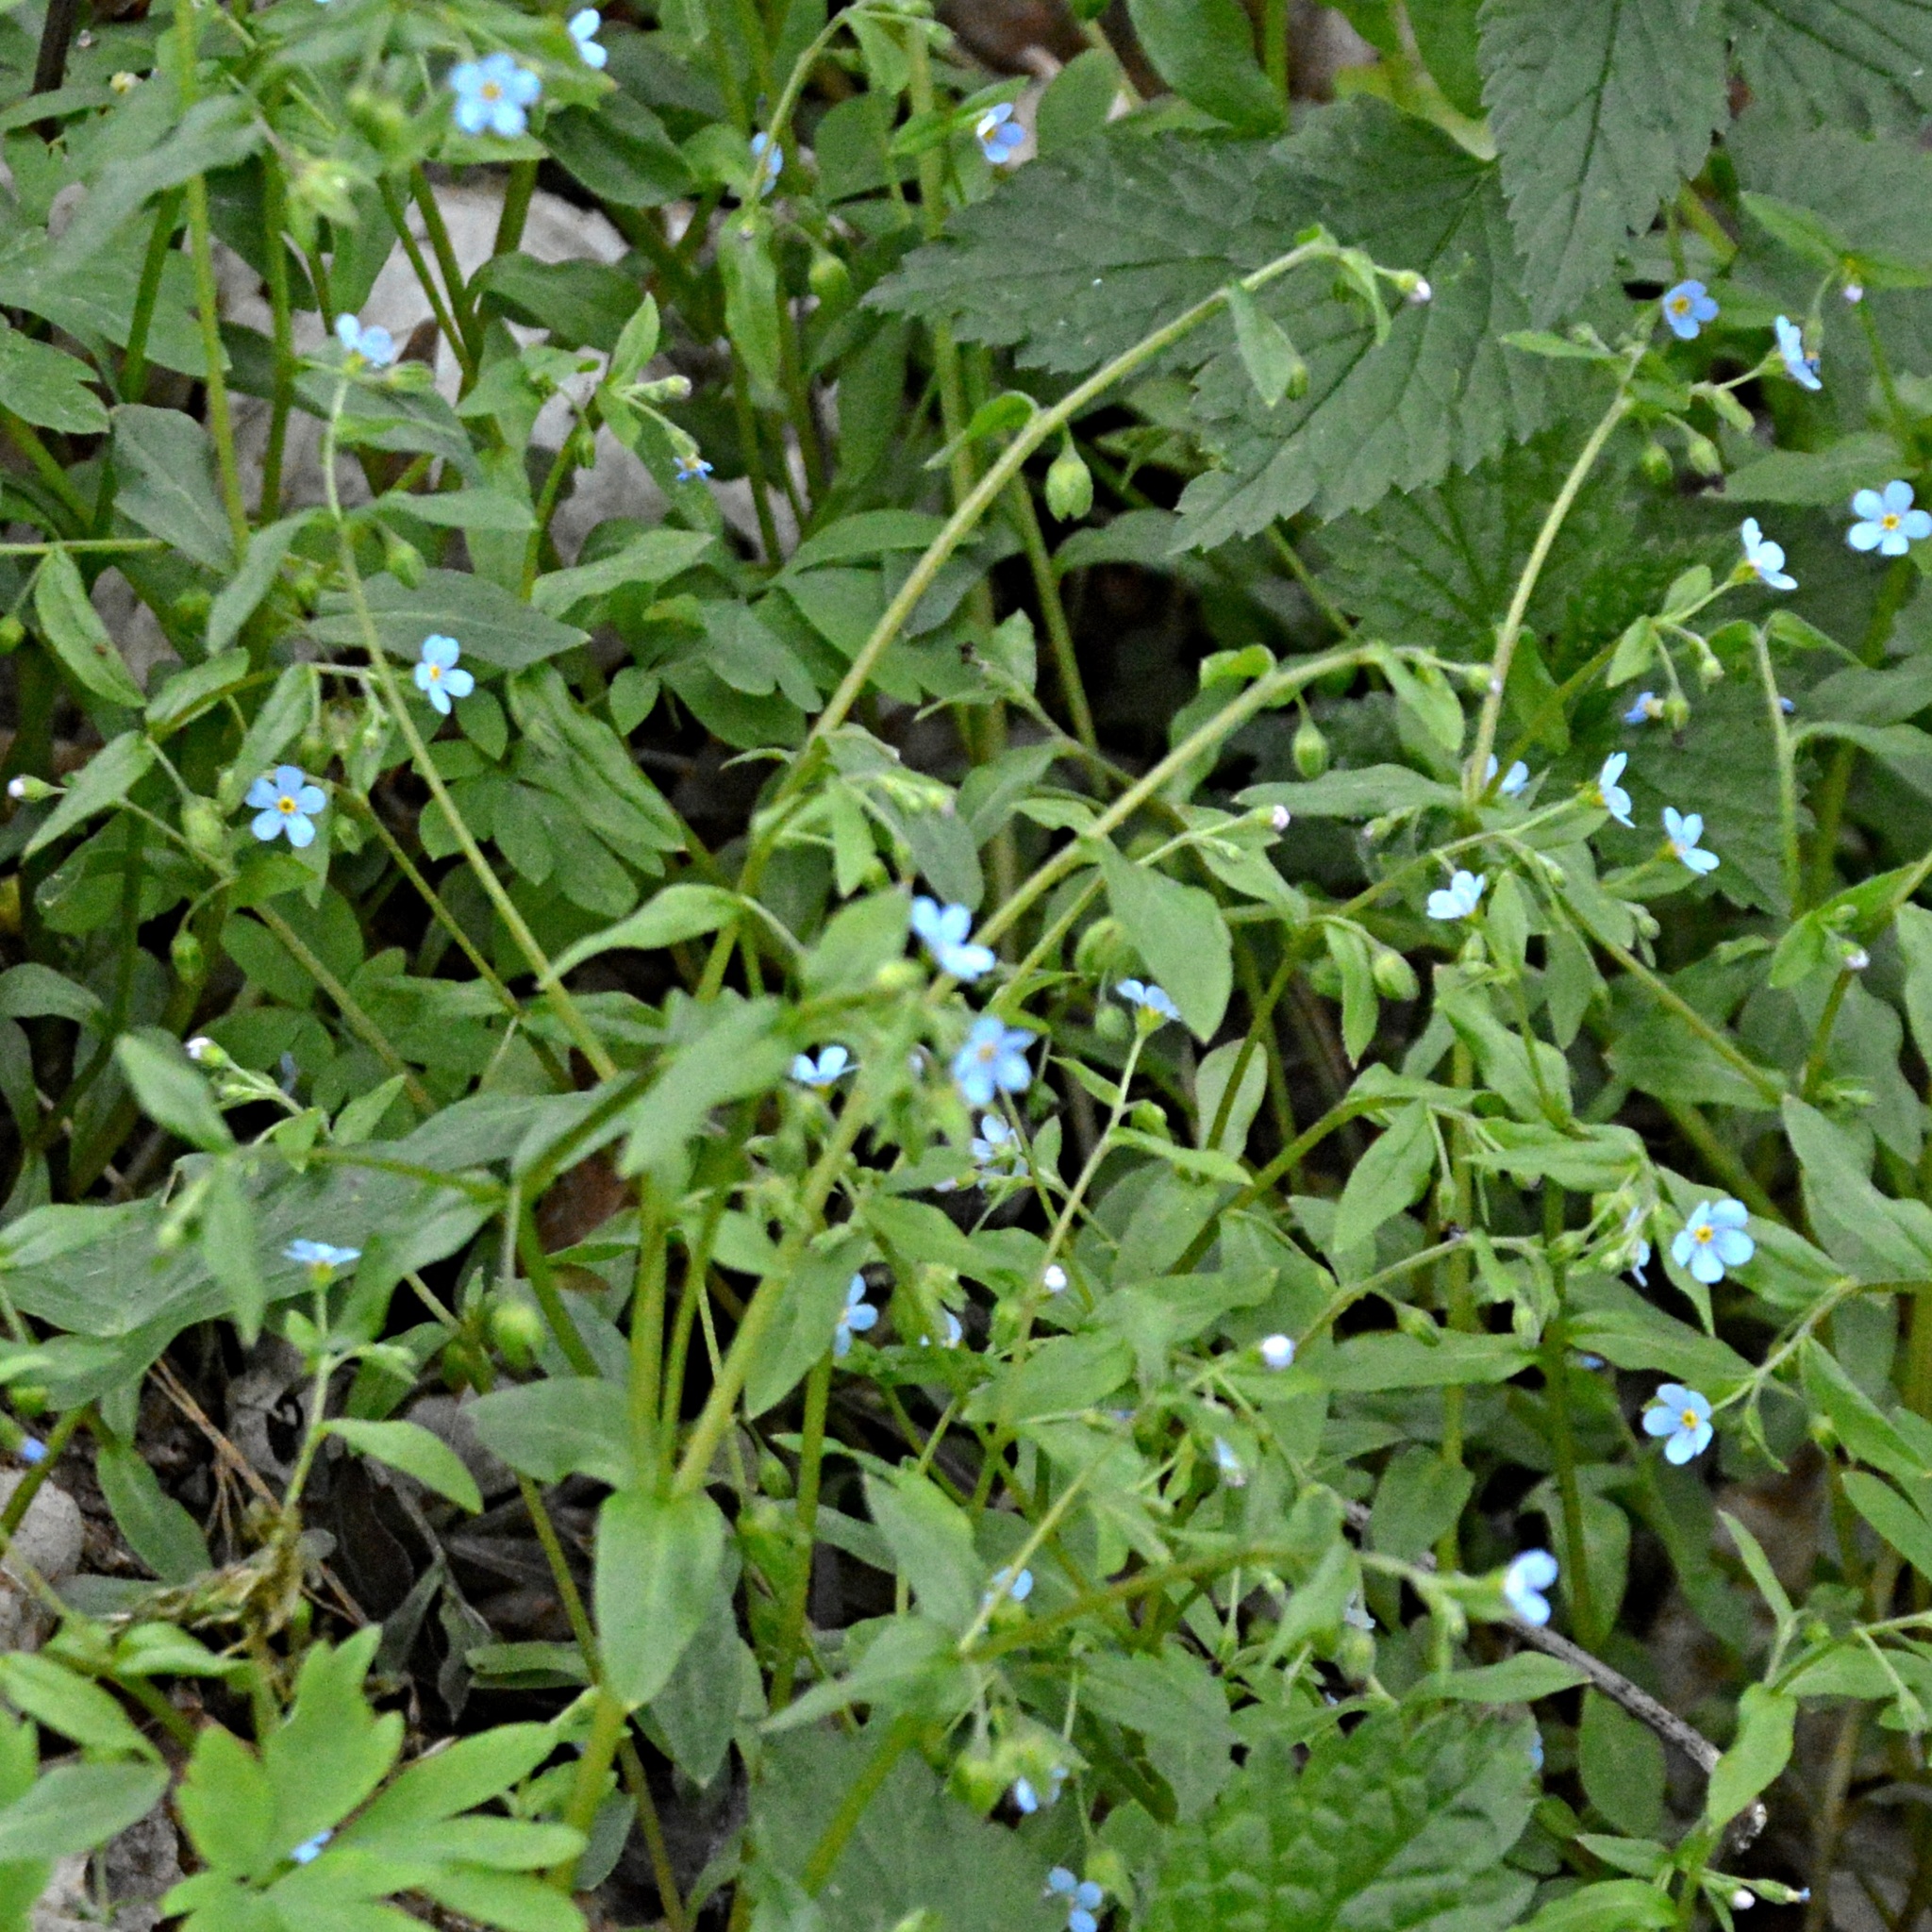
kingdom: Plantae
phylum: Tracheophyta
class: Magnoliopsida
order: Boraginales
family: Boraginaceae
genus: Memoremea
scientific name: Memoremea scorpioides
